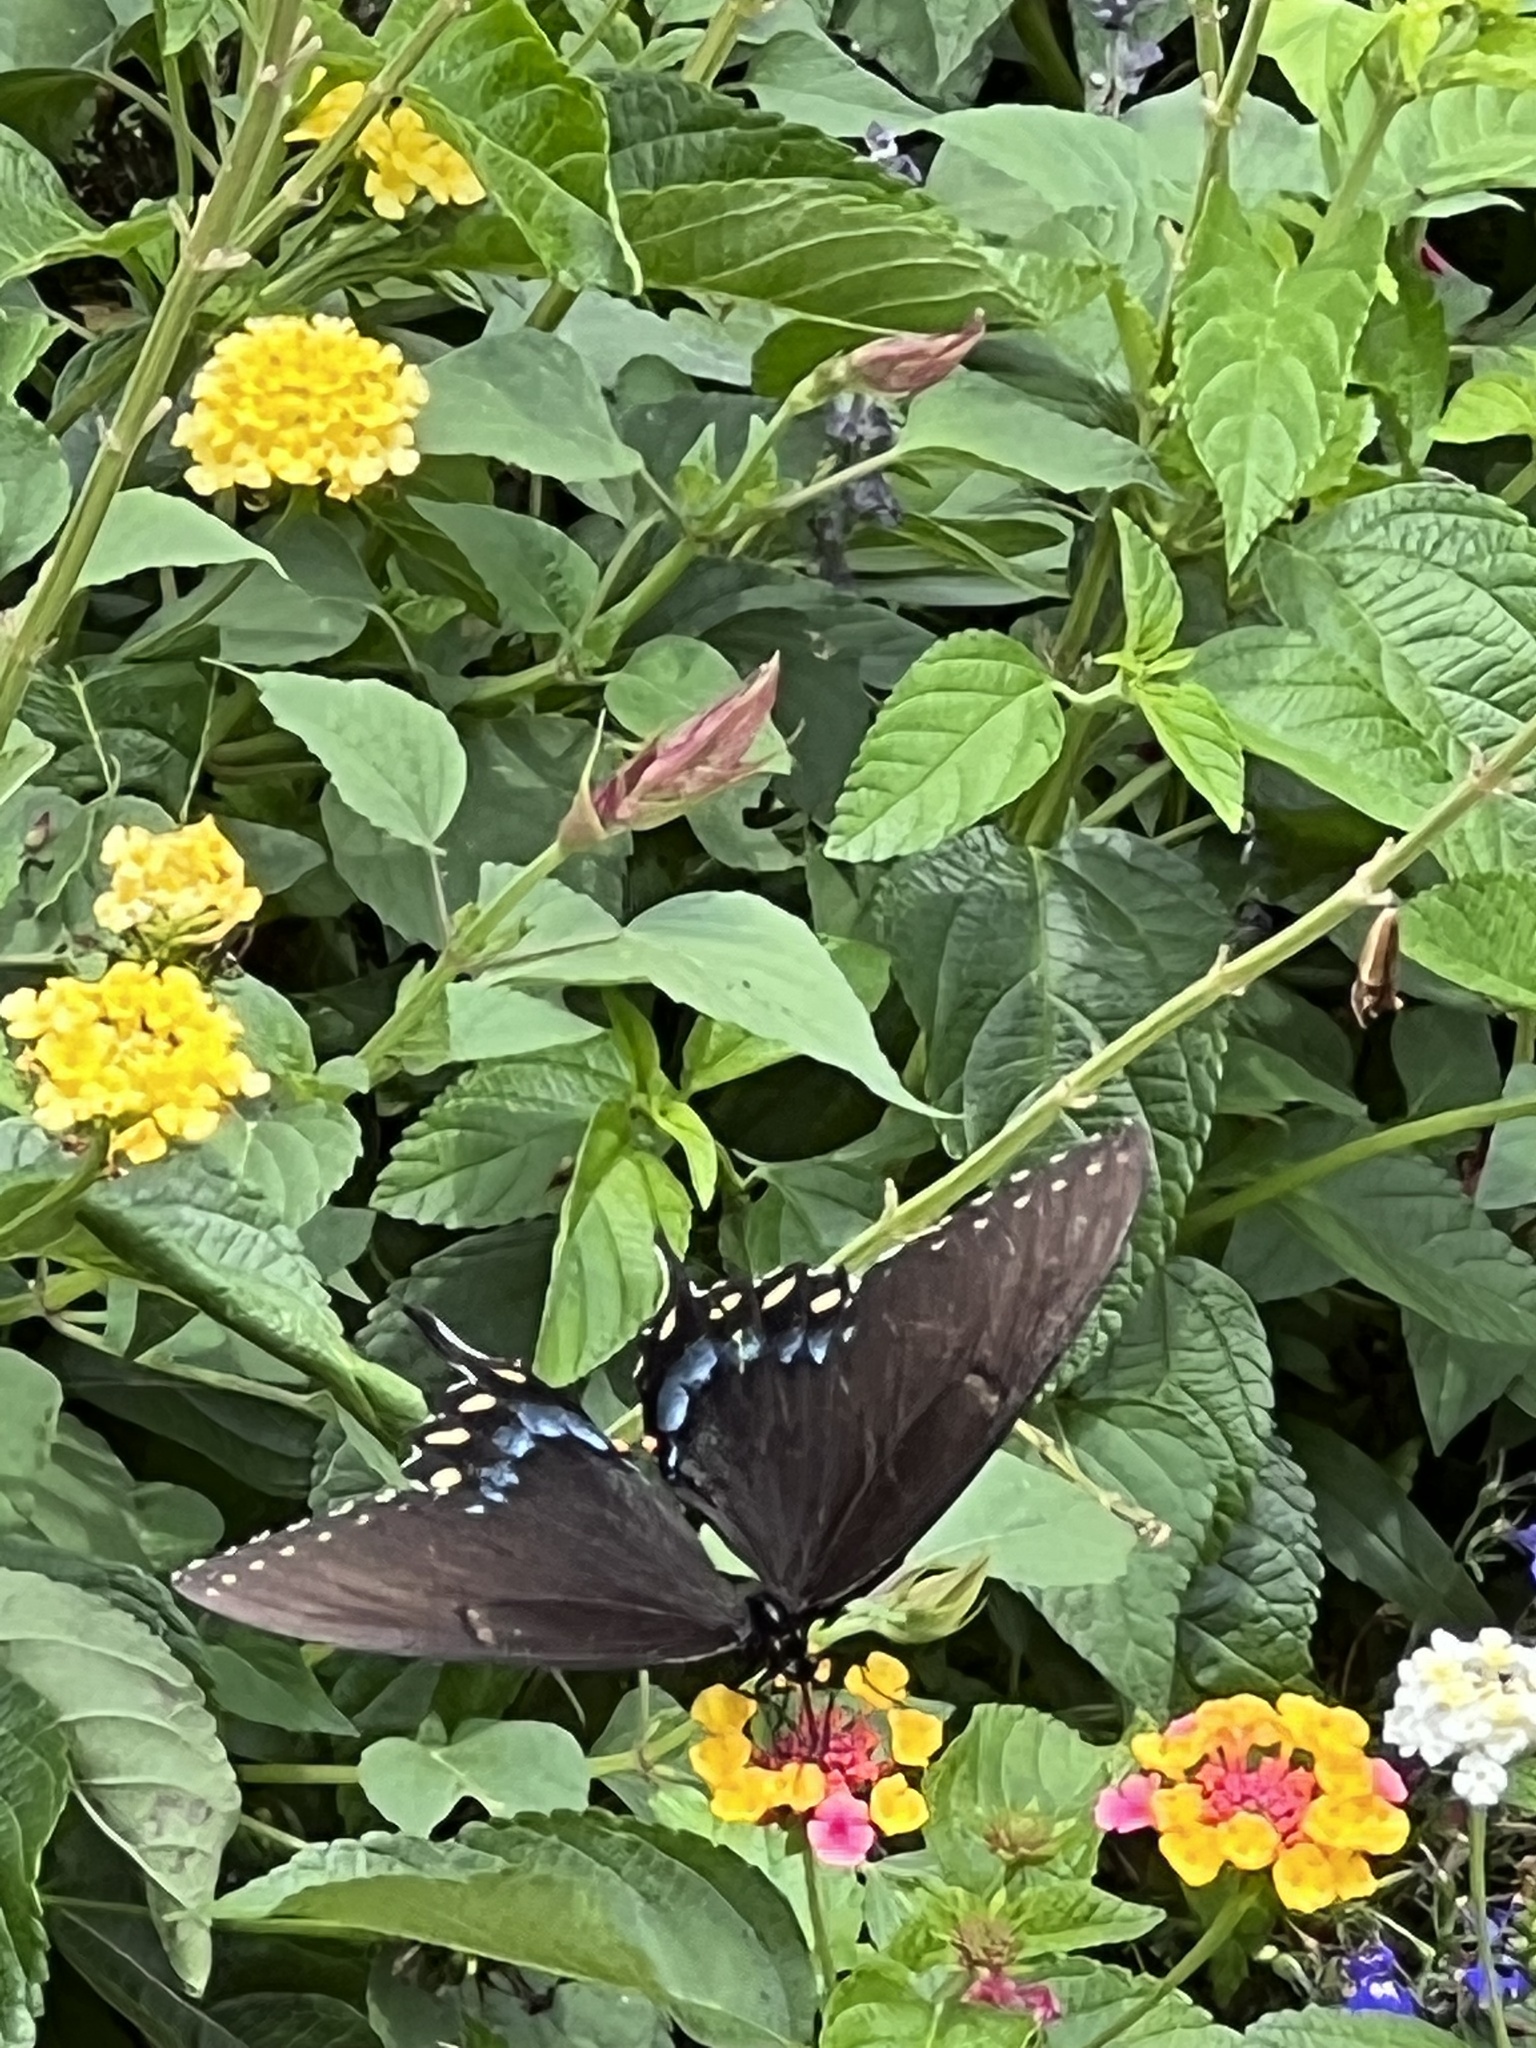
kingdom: Animalia
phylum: Arthropoda
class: Insecta
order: Lepidoptera
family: Papilionidae
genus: Papilio
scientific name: Papilio glaucus
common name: Tiger swallowtail
